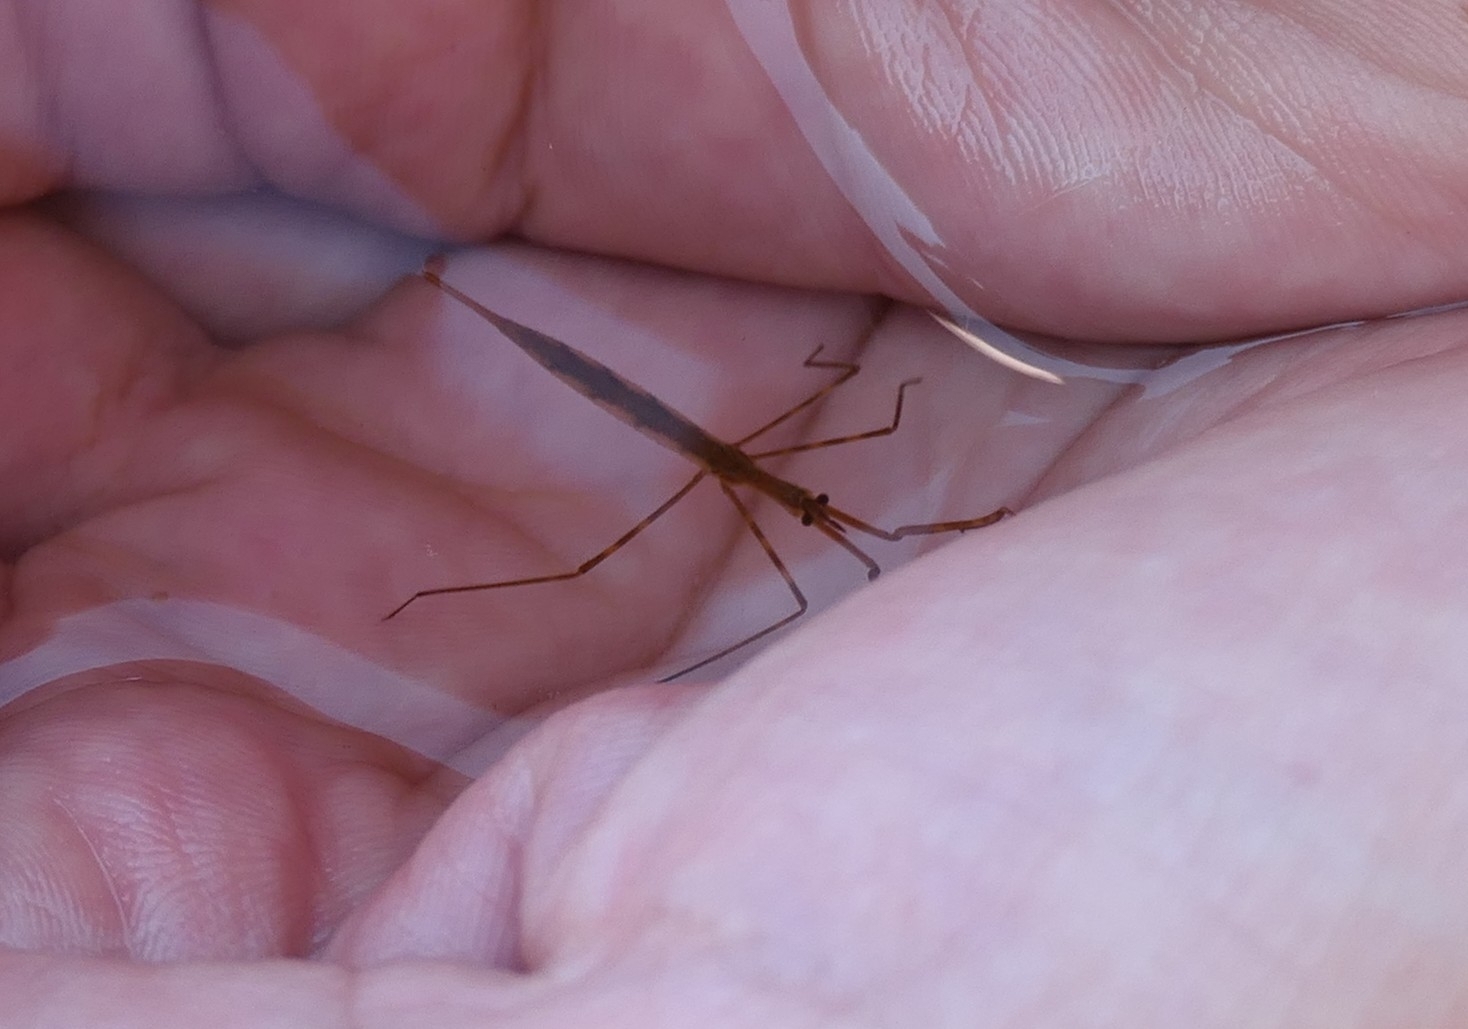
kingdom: Animalia
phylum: Arthropoda
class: Insecta
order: Hemiptera
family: Nepidae
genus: Ranatra
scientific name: Ranatra linearis
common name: Water stick insect
